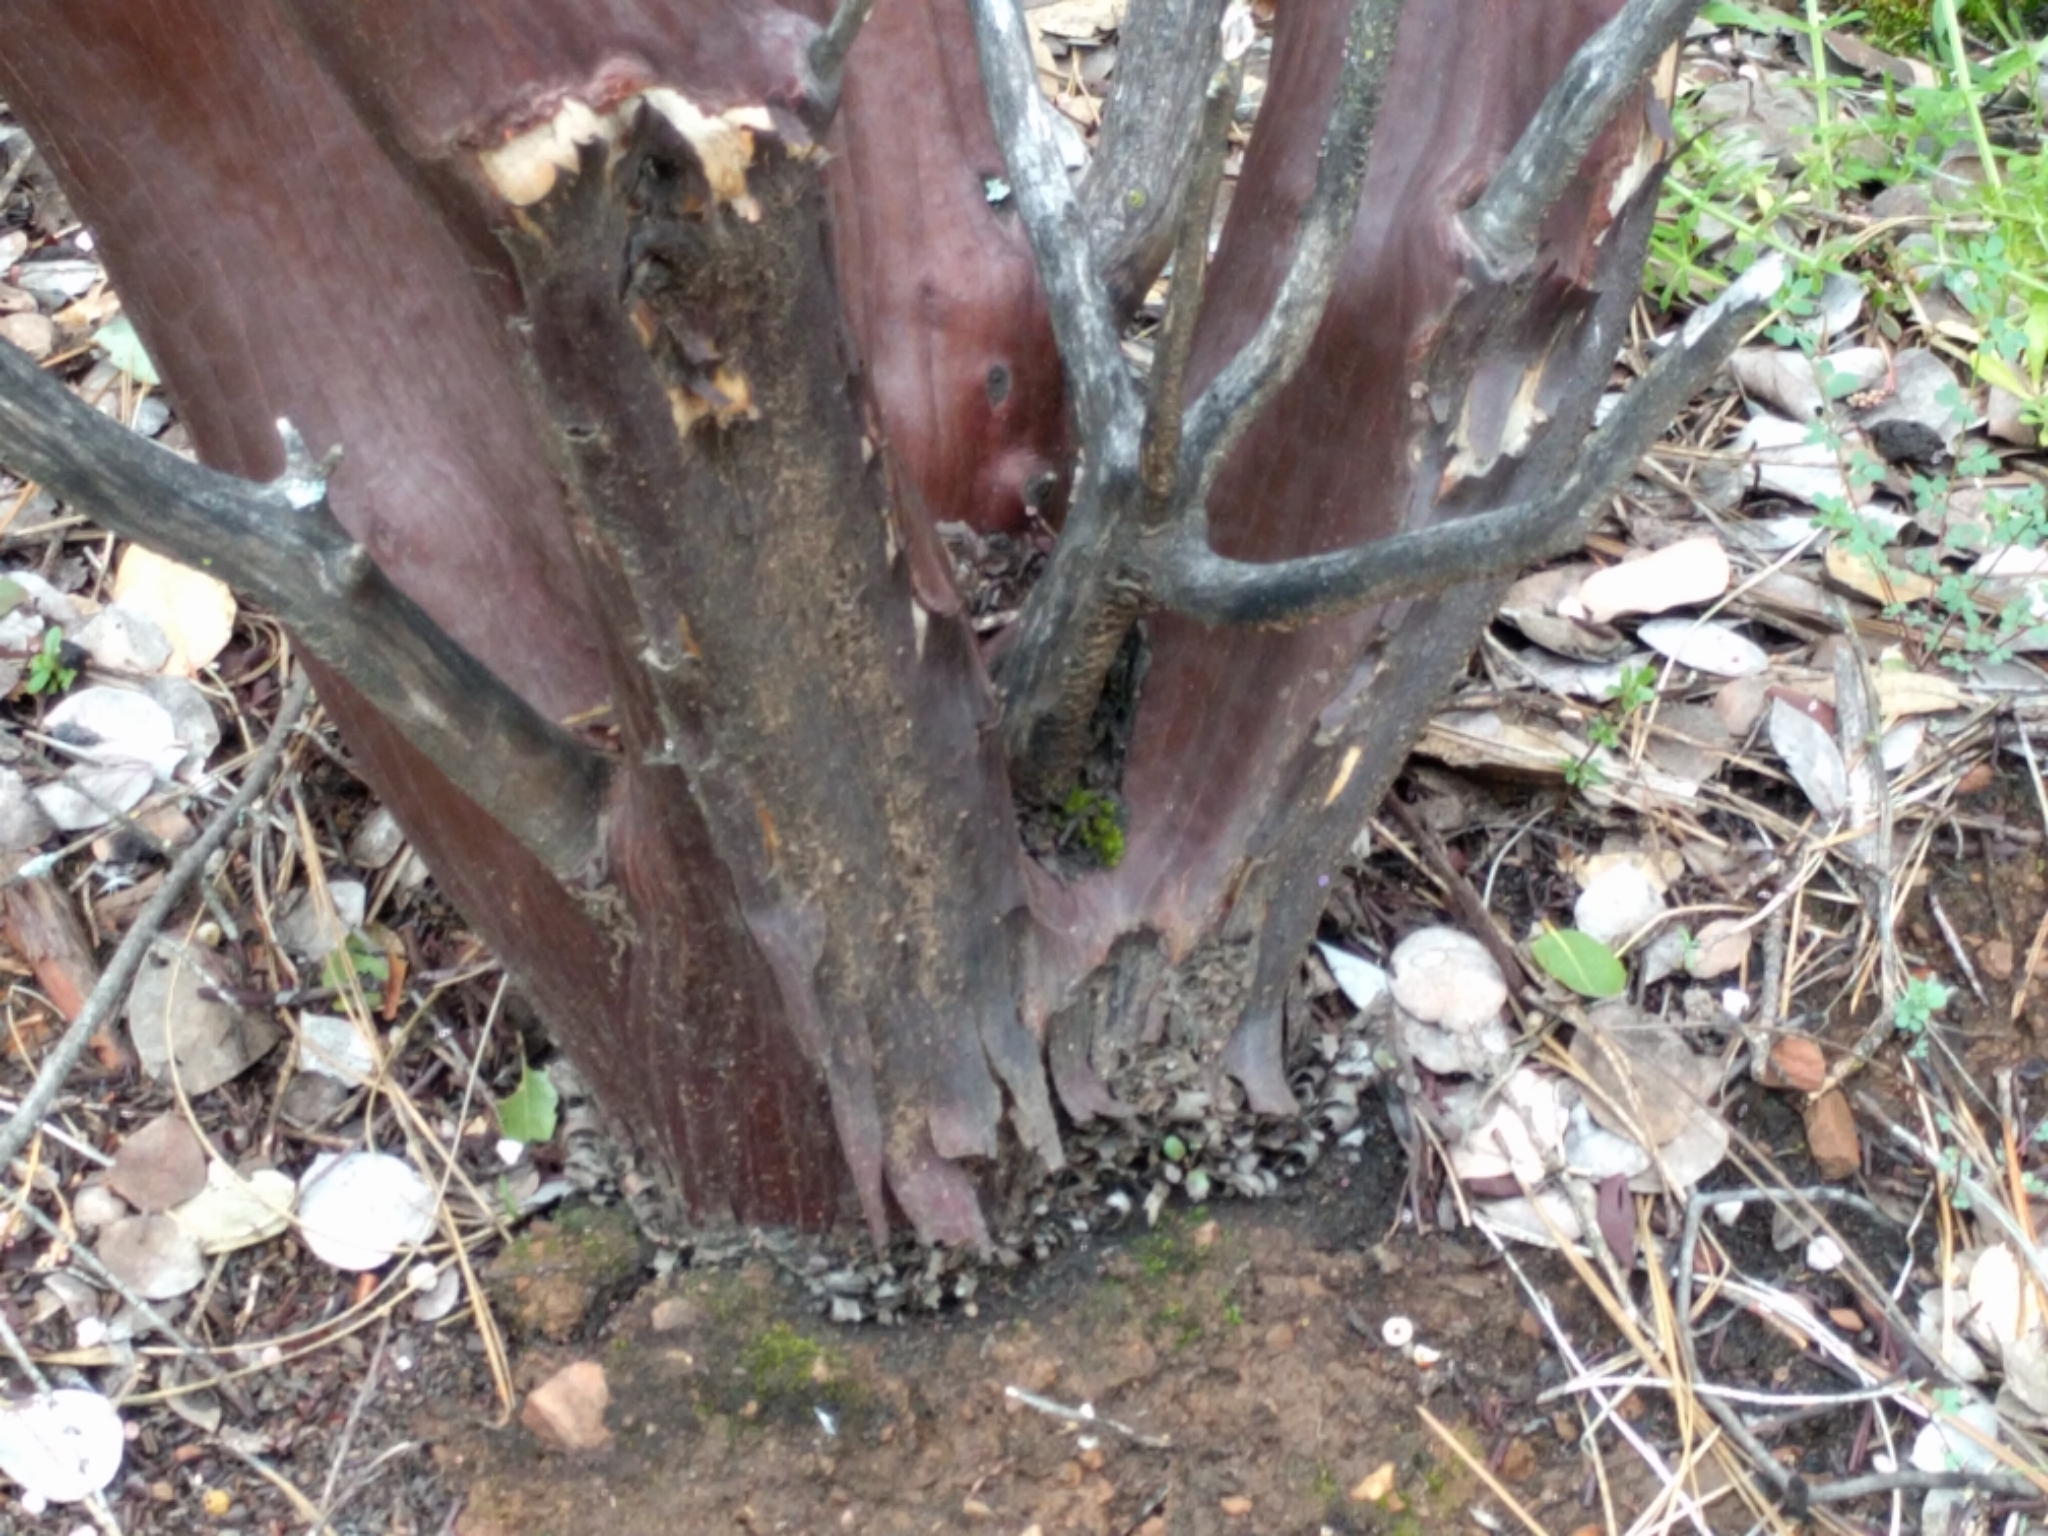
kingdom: Plantae
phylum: Tracheophyta
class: Magnoliopsida
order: Ericales
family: Ericaceae
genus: Arctostaphylos
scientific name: Arctostaphylos viscida
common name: White-leaf manzanita
